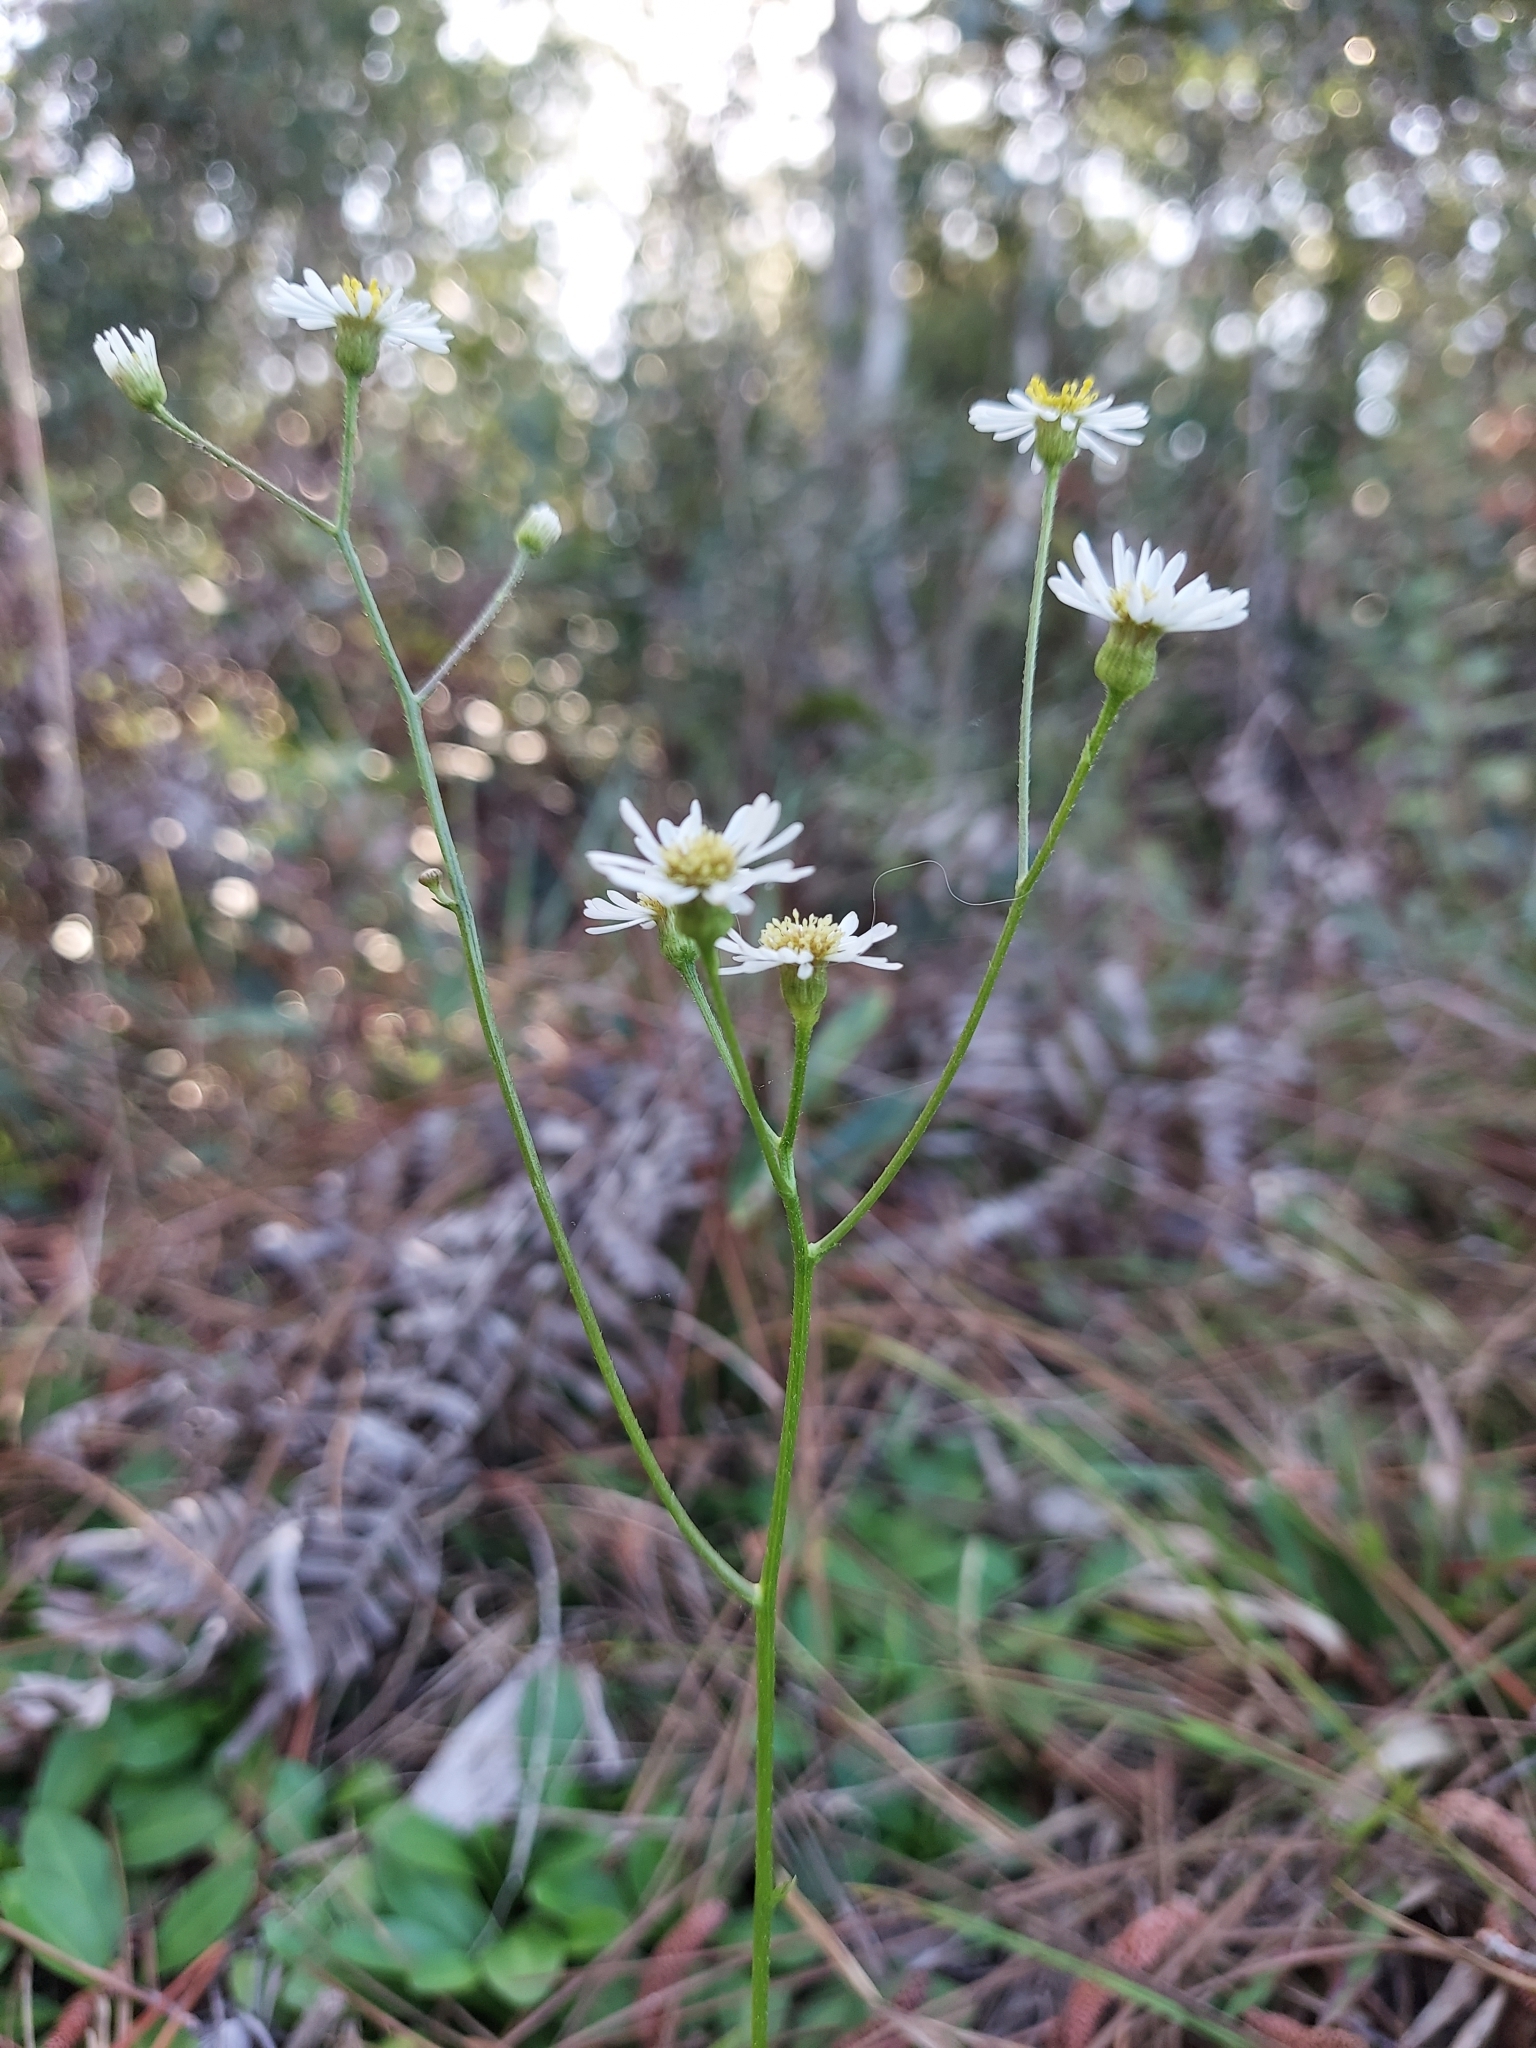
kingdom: Plantae
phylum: Tracheophyta
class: Magnoliopsida
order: Asterales
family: Asteraceae
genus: Erigeron
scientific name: Erigeron vernus
